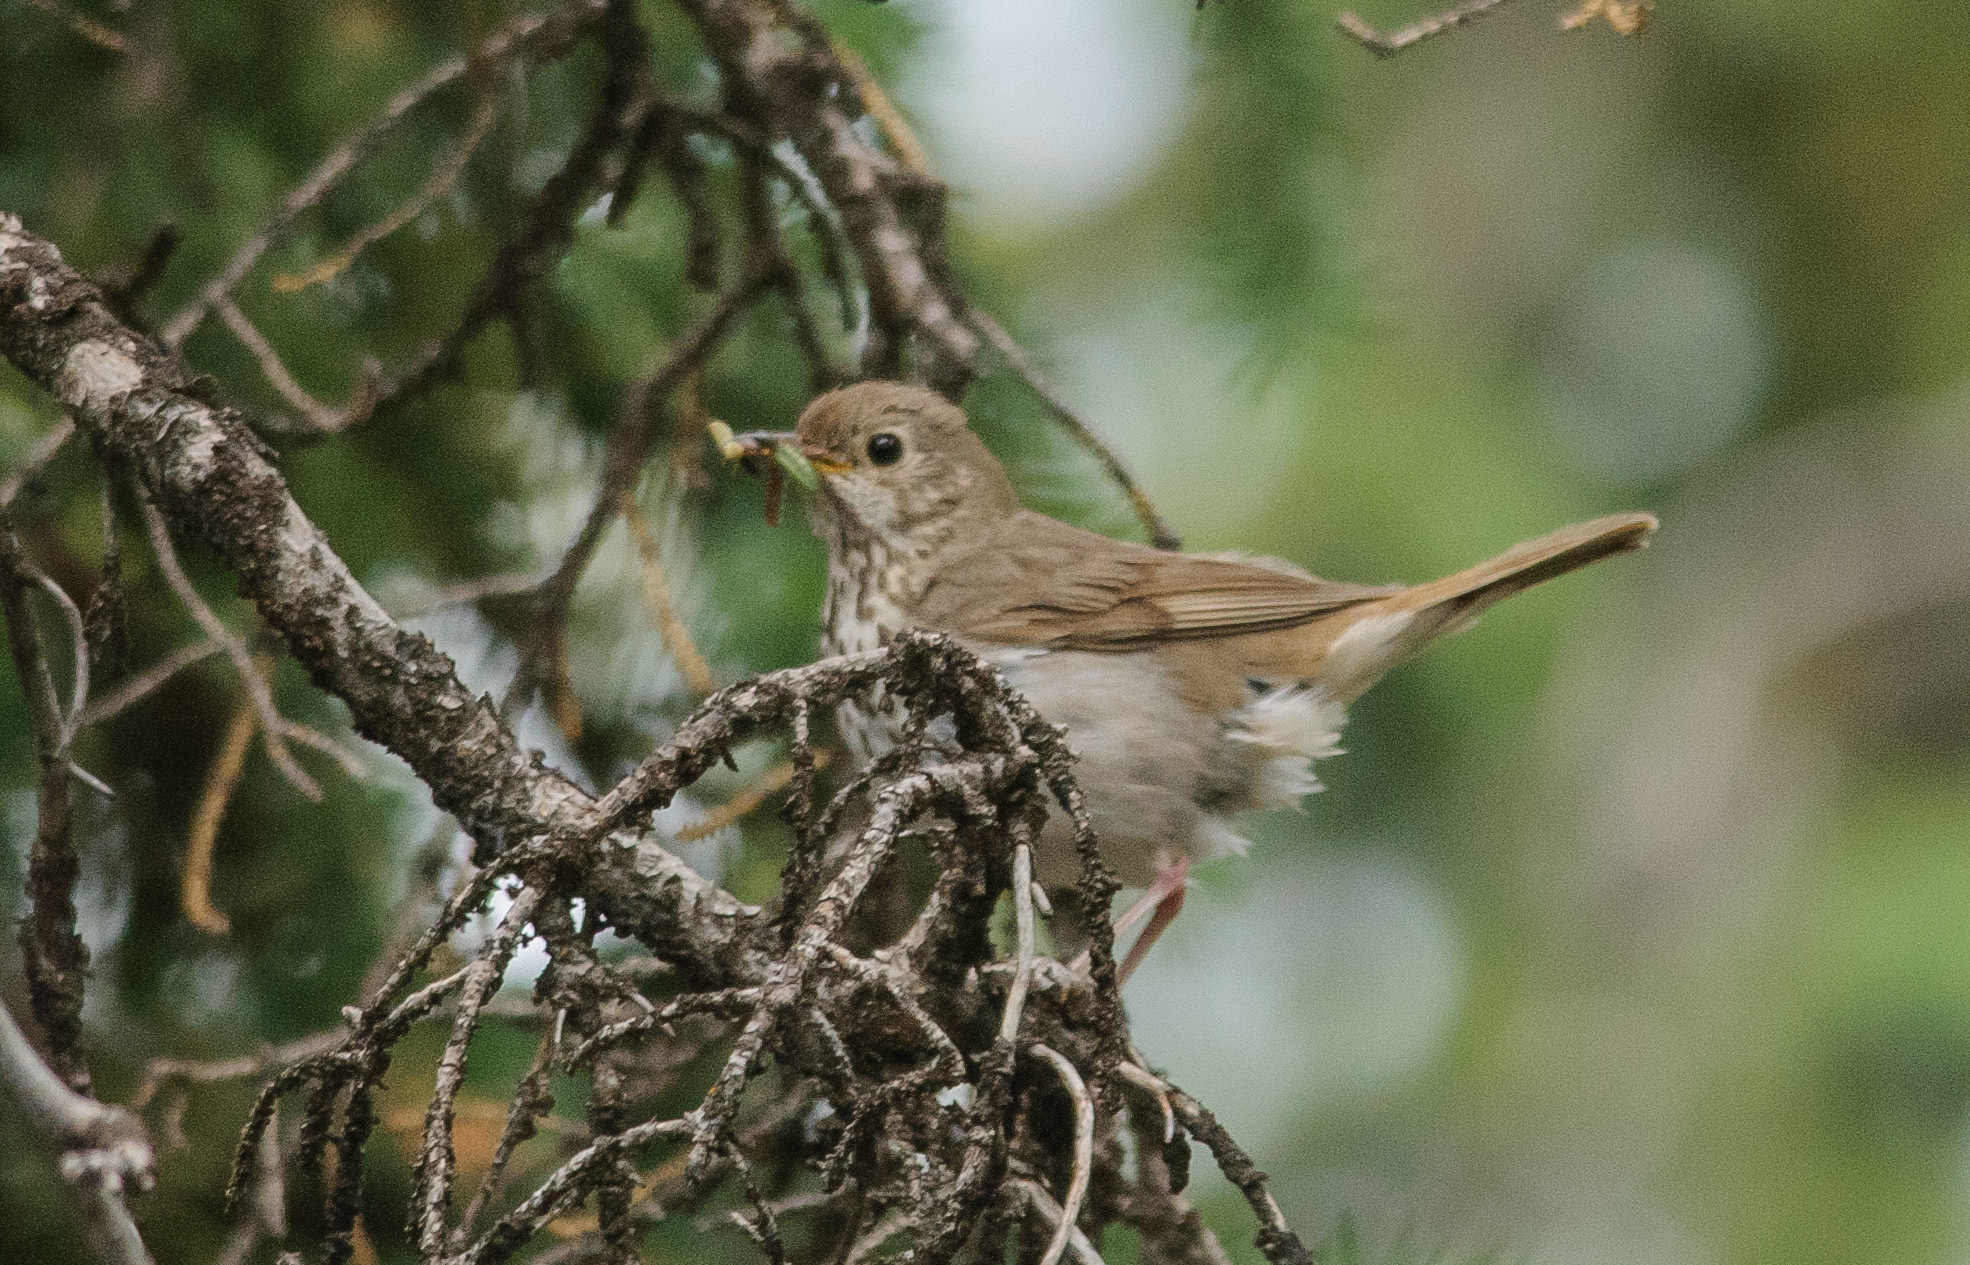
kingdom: Animalia
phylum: Chordata
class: Aves
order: Passeriformes
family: Turdidae
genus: Catharus
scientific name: Catharus guttatus
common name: Hermit thrush
